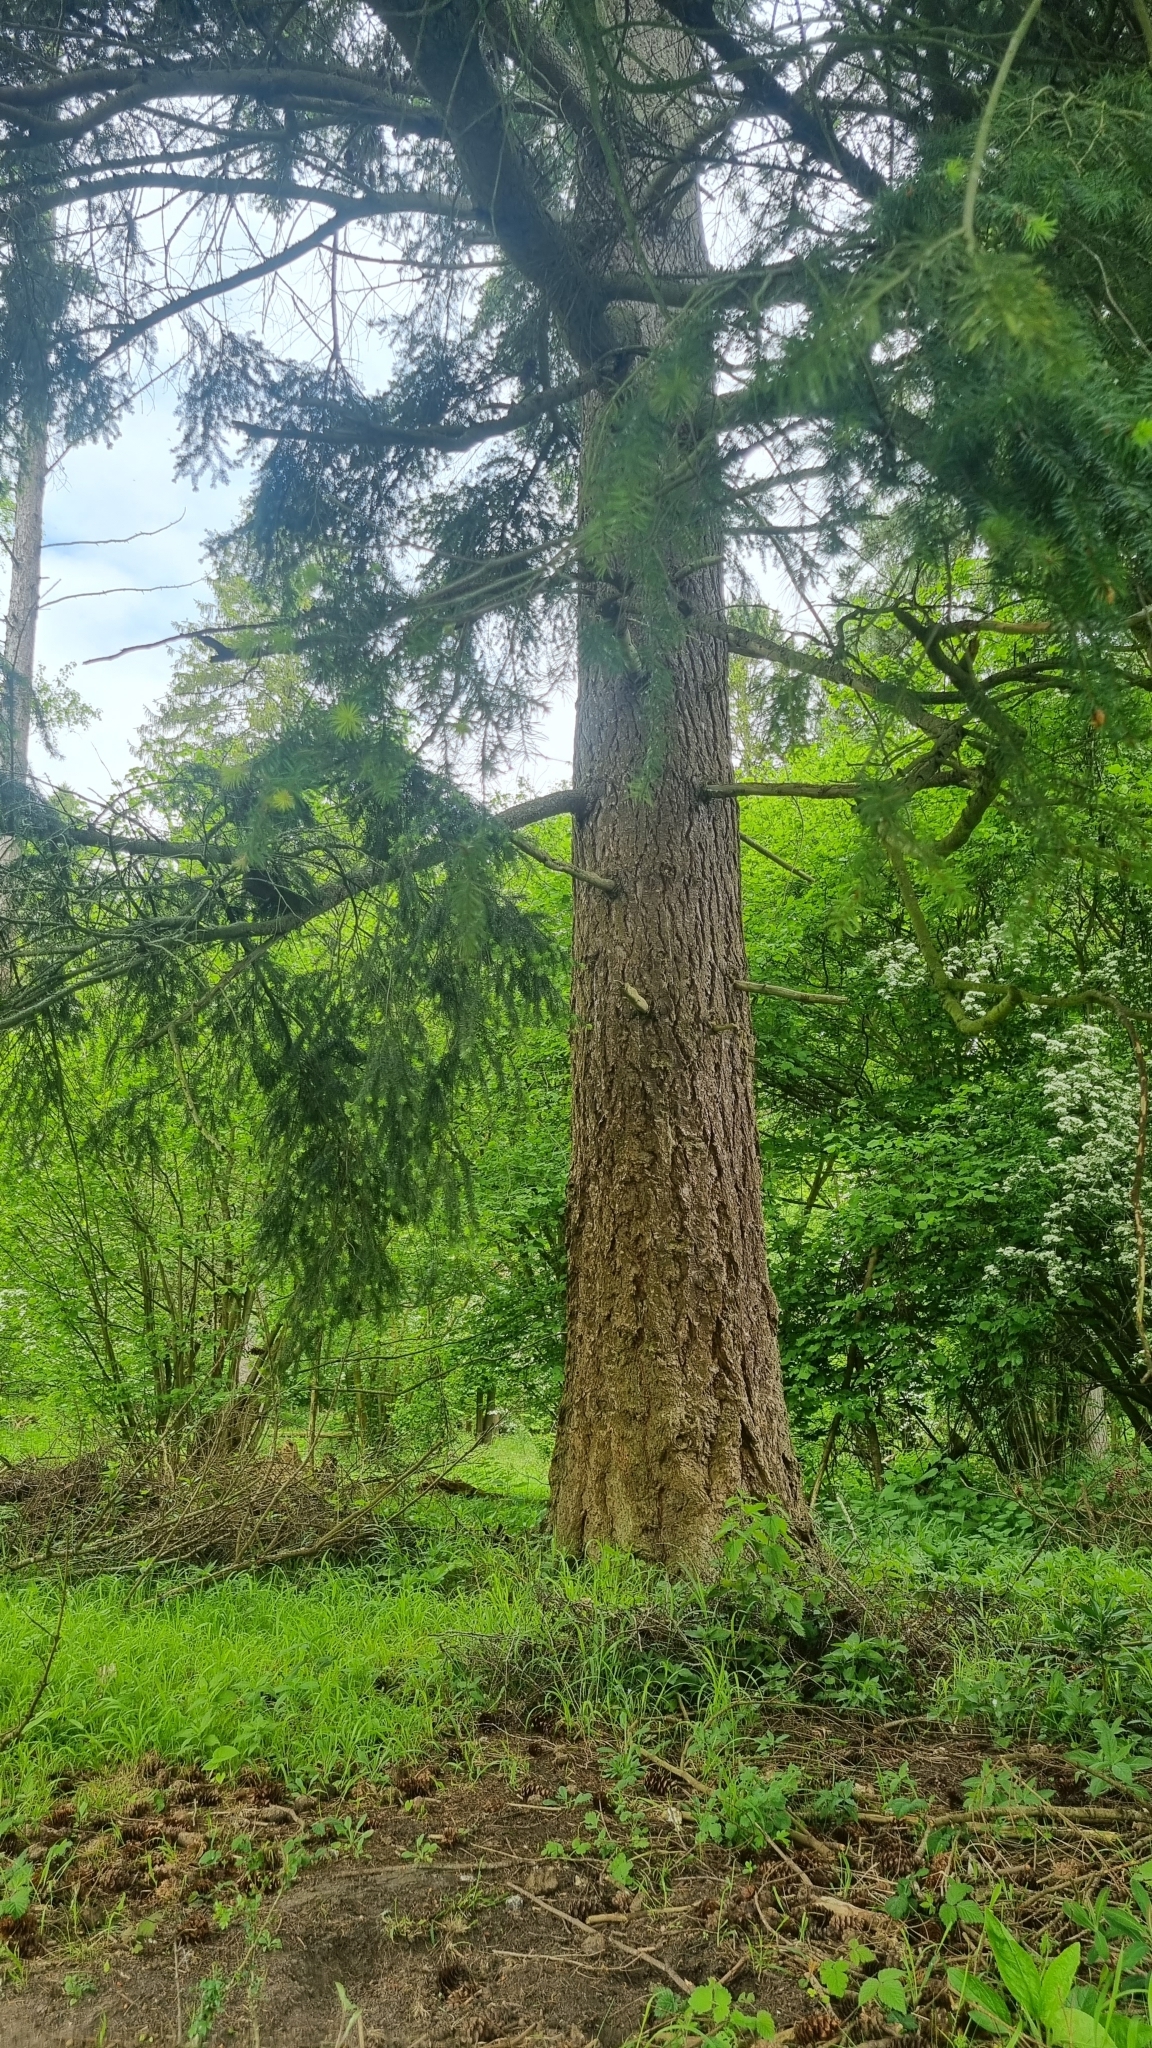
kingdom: Plantae
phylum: Tracheophyta
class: Pinopsida
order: Pinales
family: Pinaceae
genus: Pseudotsuga
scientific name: Pseudotsuga menziesii
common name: Douglas fir
